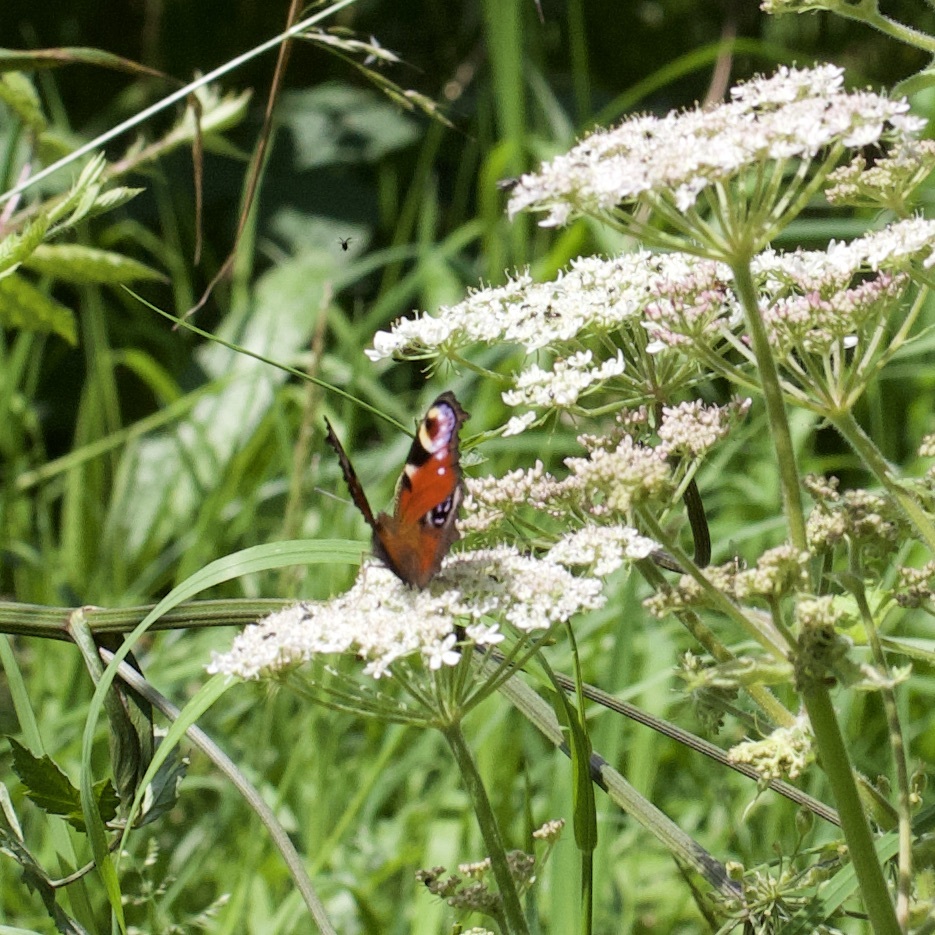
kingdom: Animalia
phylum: Arthropoda
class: Insecta
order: Lepidoptera
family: Nymphalidae
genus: Aglais
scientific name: Aglais io
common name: Peacock
